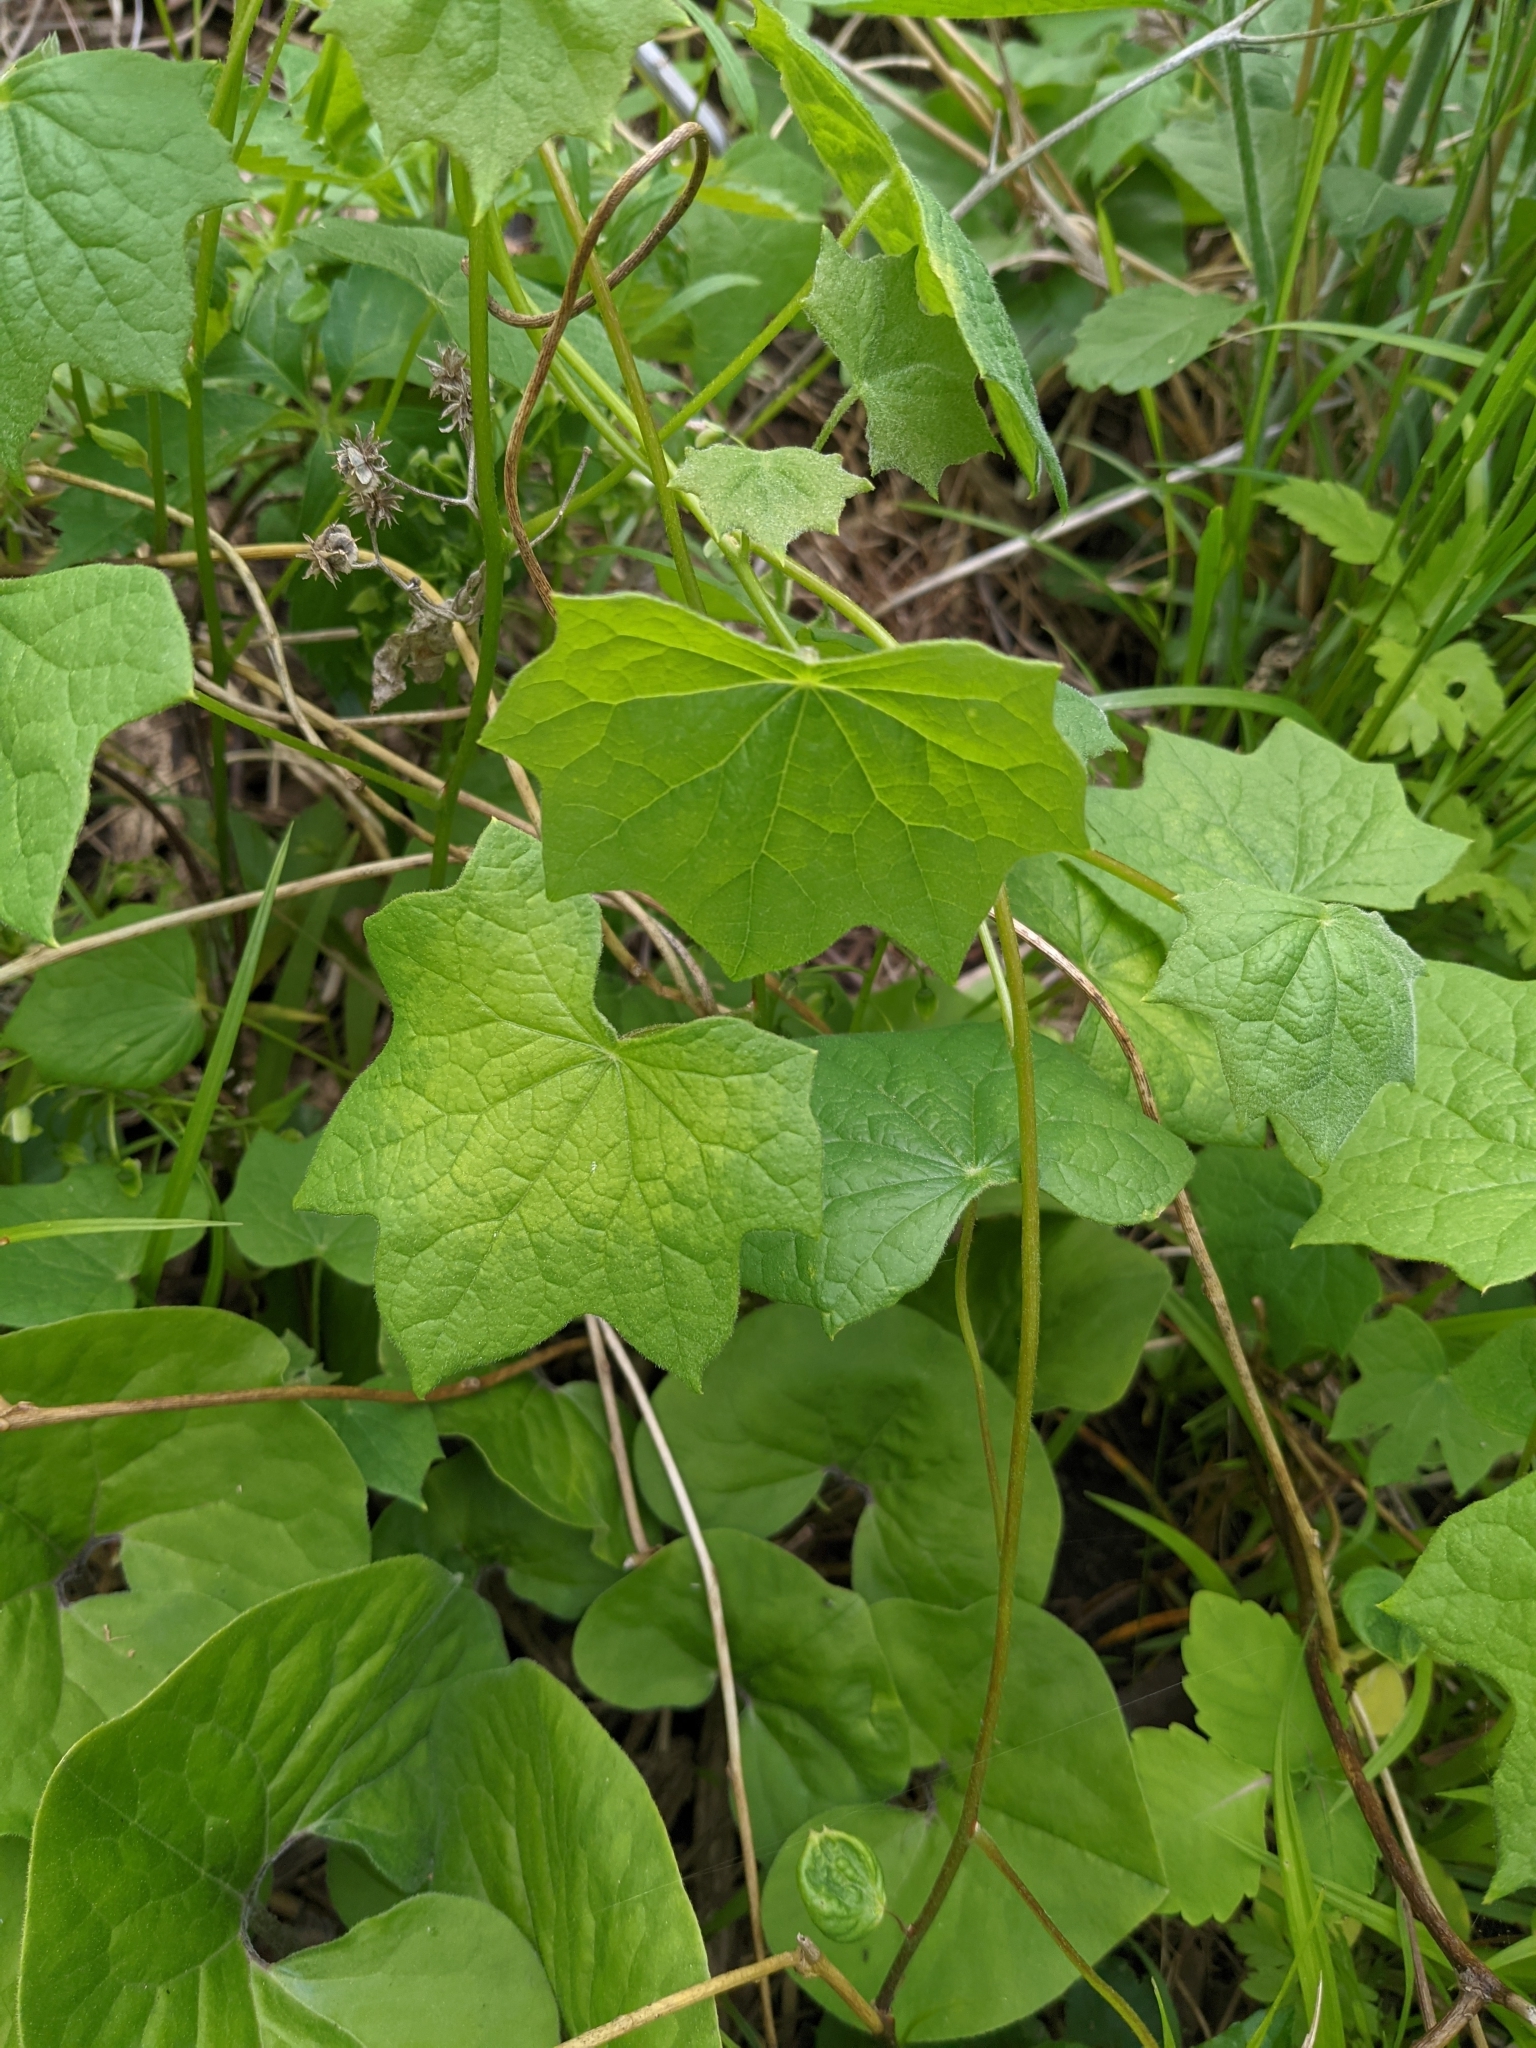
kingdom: Plantae
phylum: Tracheophyta
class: Magnoliopsida
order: Ranunculales
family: Menispermaceae
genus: Menispermum
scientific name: Menispermum canadense
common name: Moonseed
